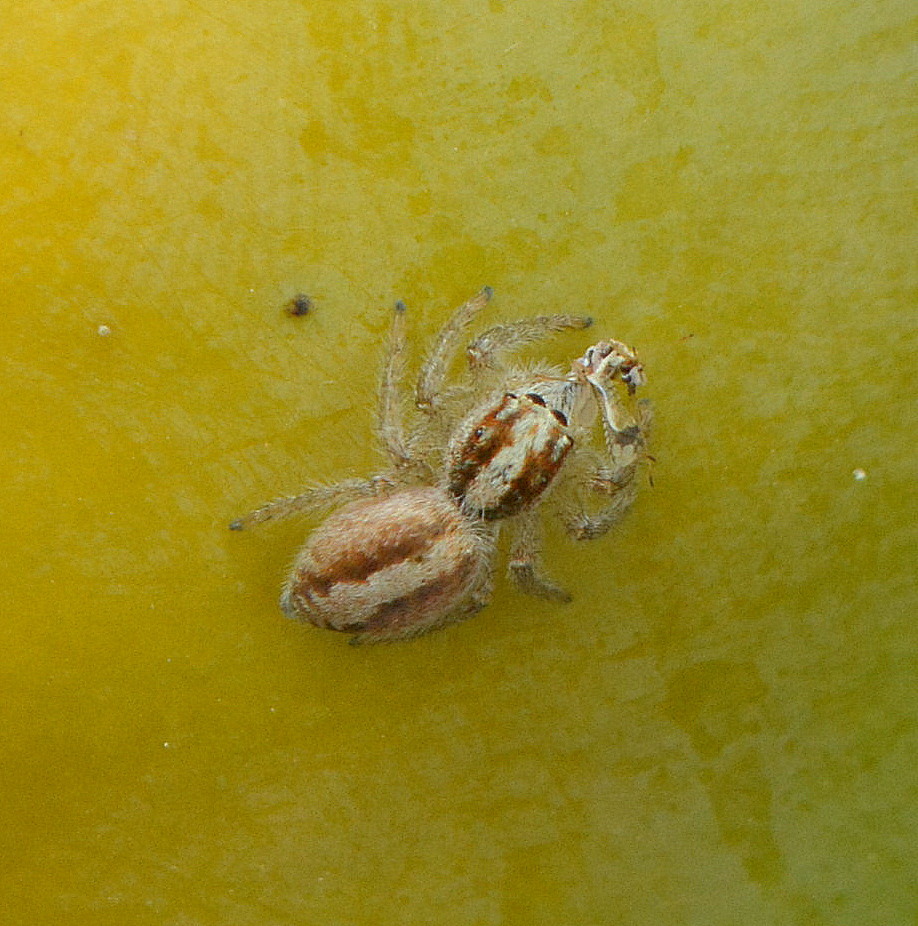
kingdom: Animalia
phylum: Arthropoda
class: Arachnida
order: Araneae
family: Salticidae
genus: Megafreya
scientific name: Megafreya sutrix
